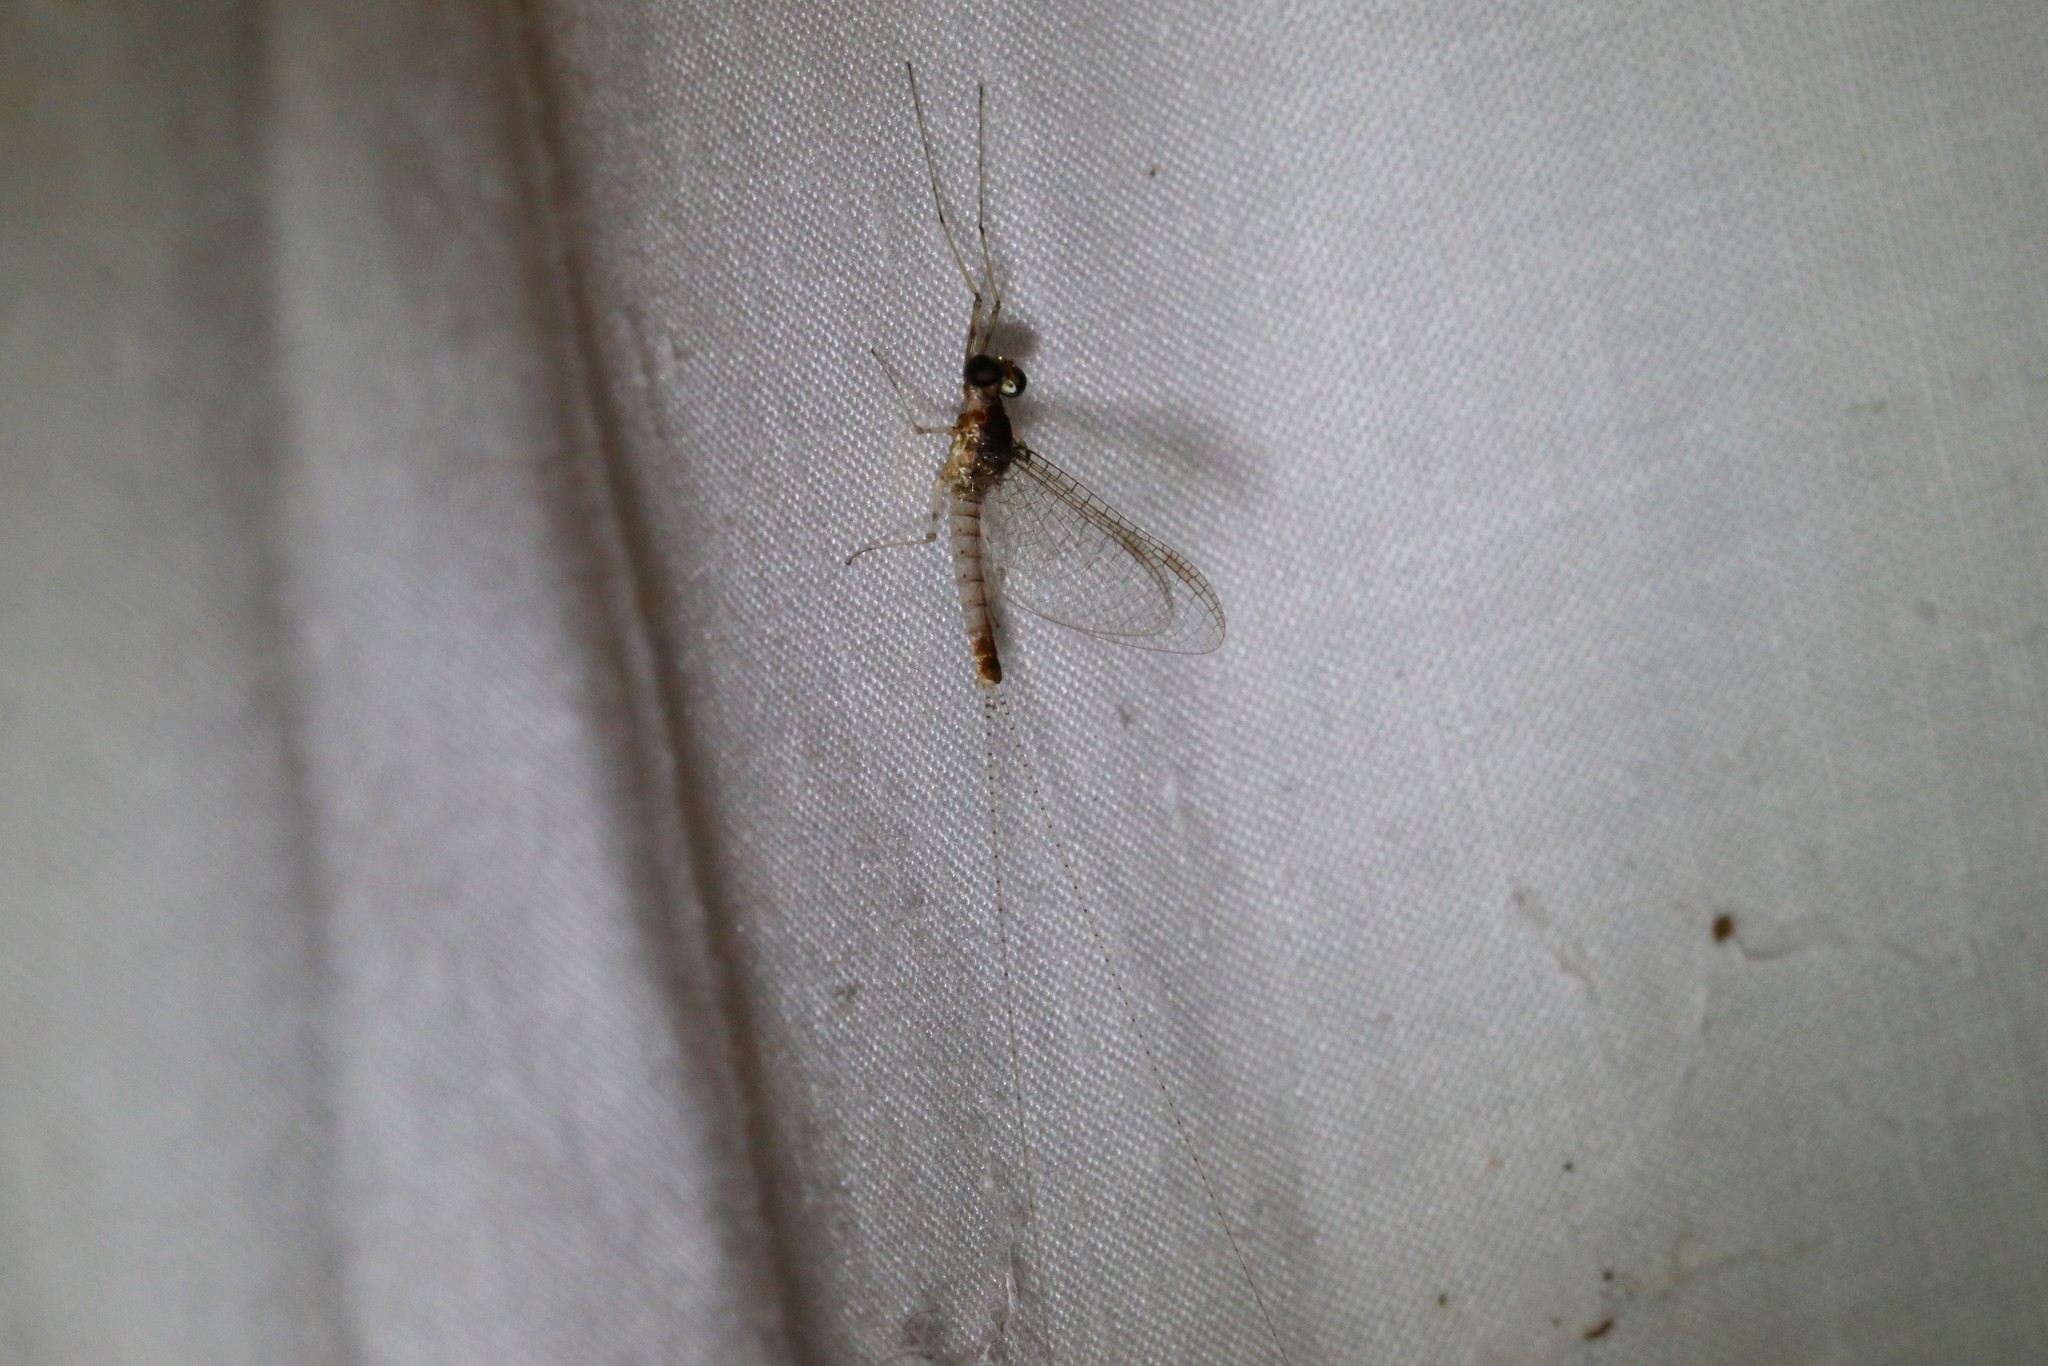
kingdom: Animalia
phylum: Arthropoda
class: Insecta
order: Ephemeroptera
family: Heptageniidae
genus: Maccaffertium
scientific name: Maccaffertium pulchellum
